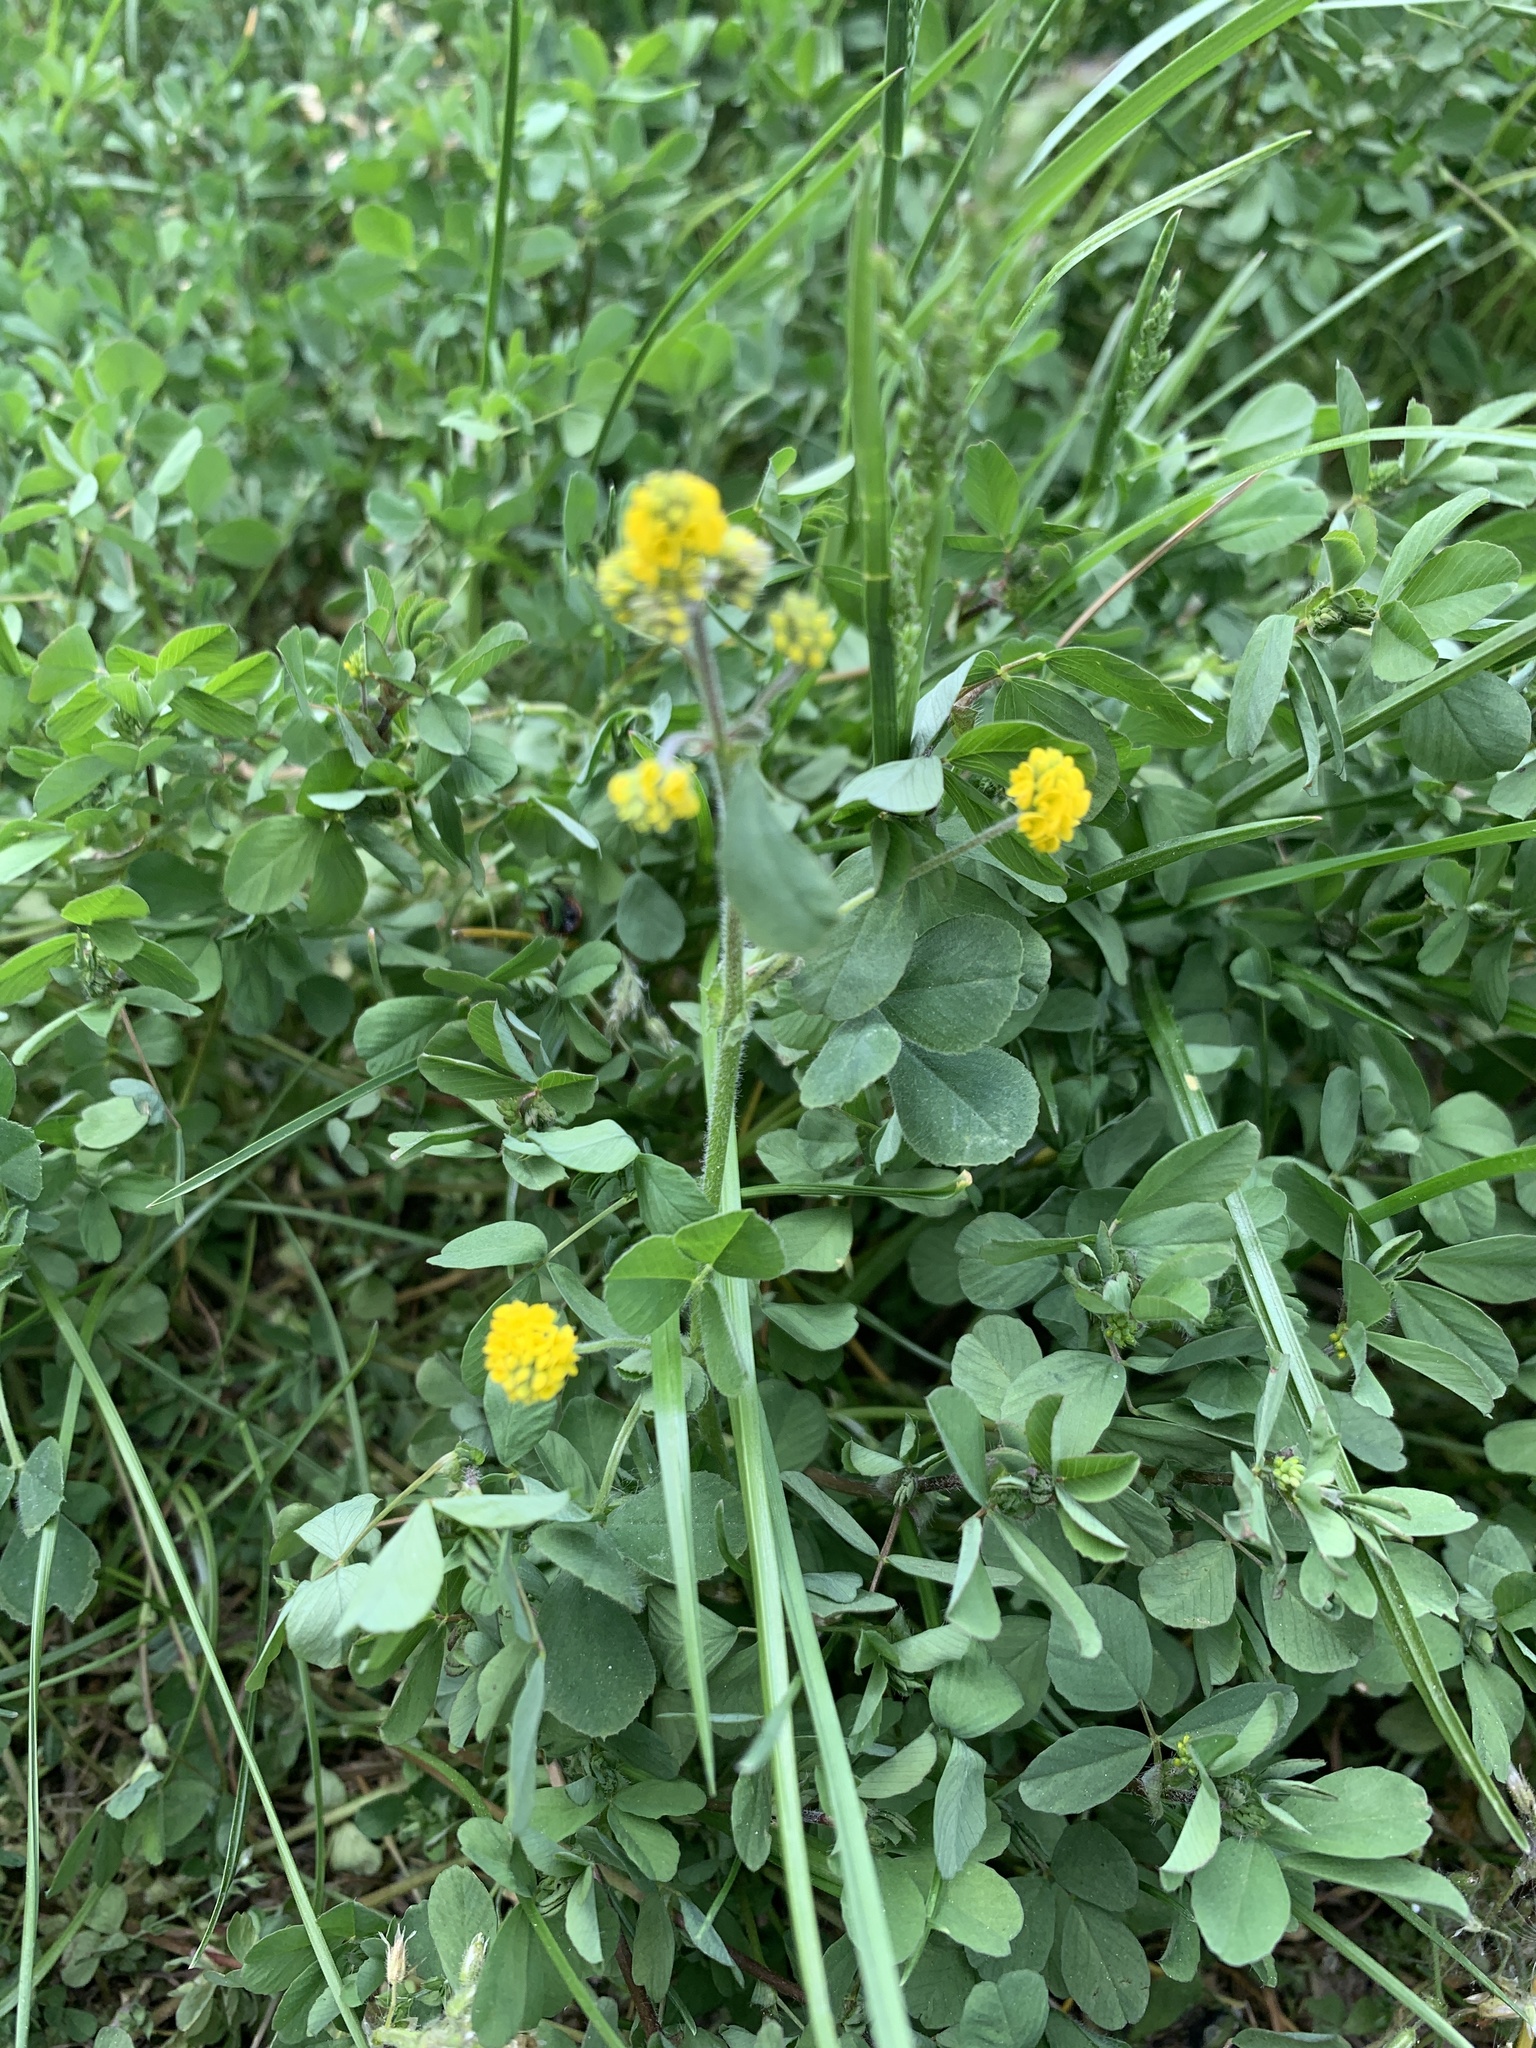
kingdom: Plantae
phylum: Tracheophyta
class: Magnoliopsida
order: Fabales
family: Fabaceae
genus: Medicago
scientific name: Medicago lupulina
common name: Black medick
